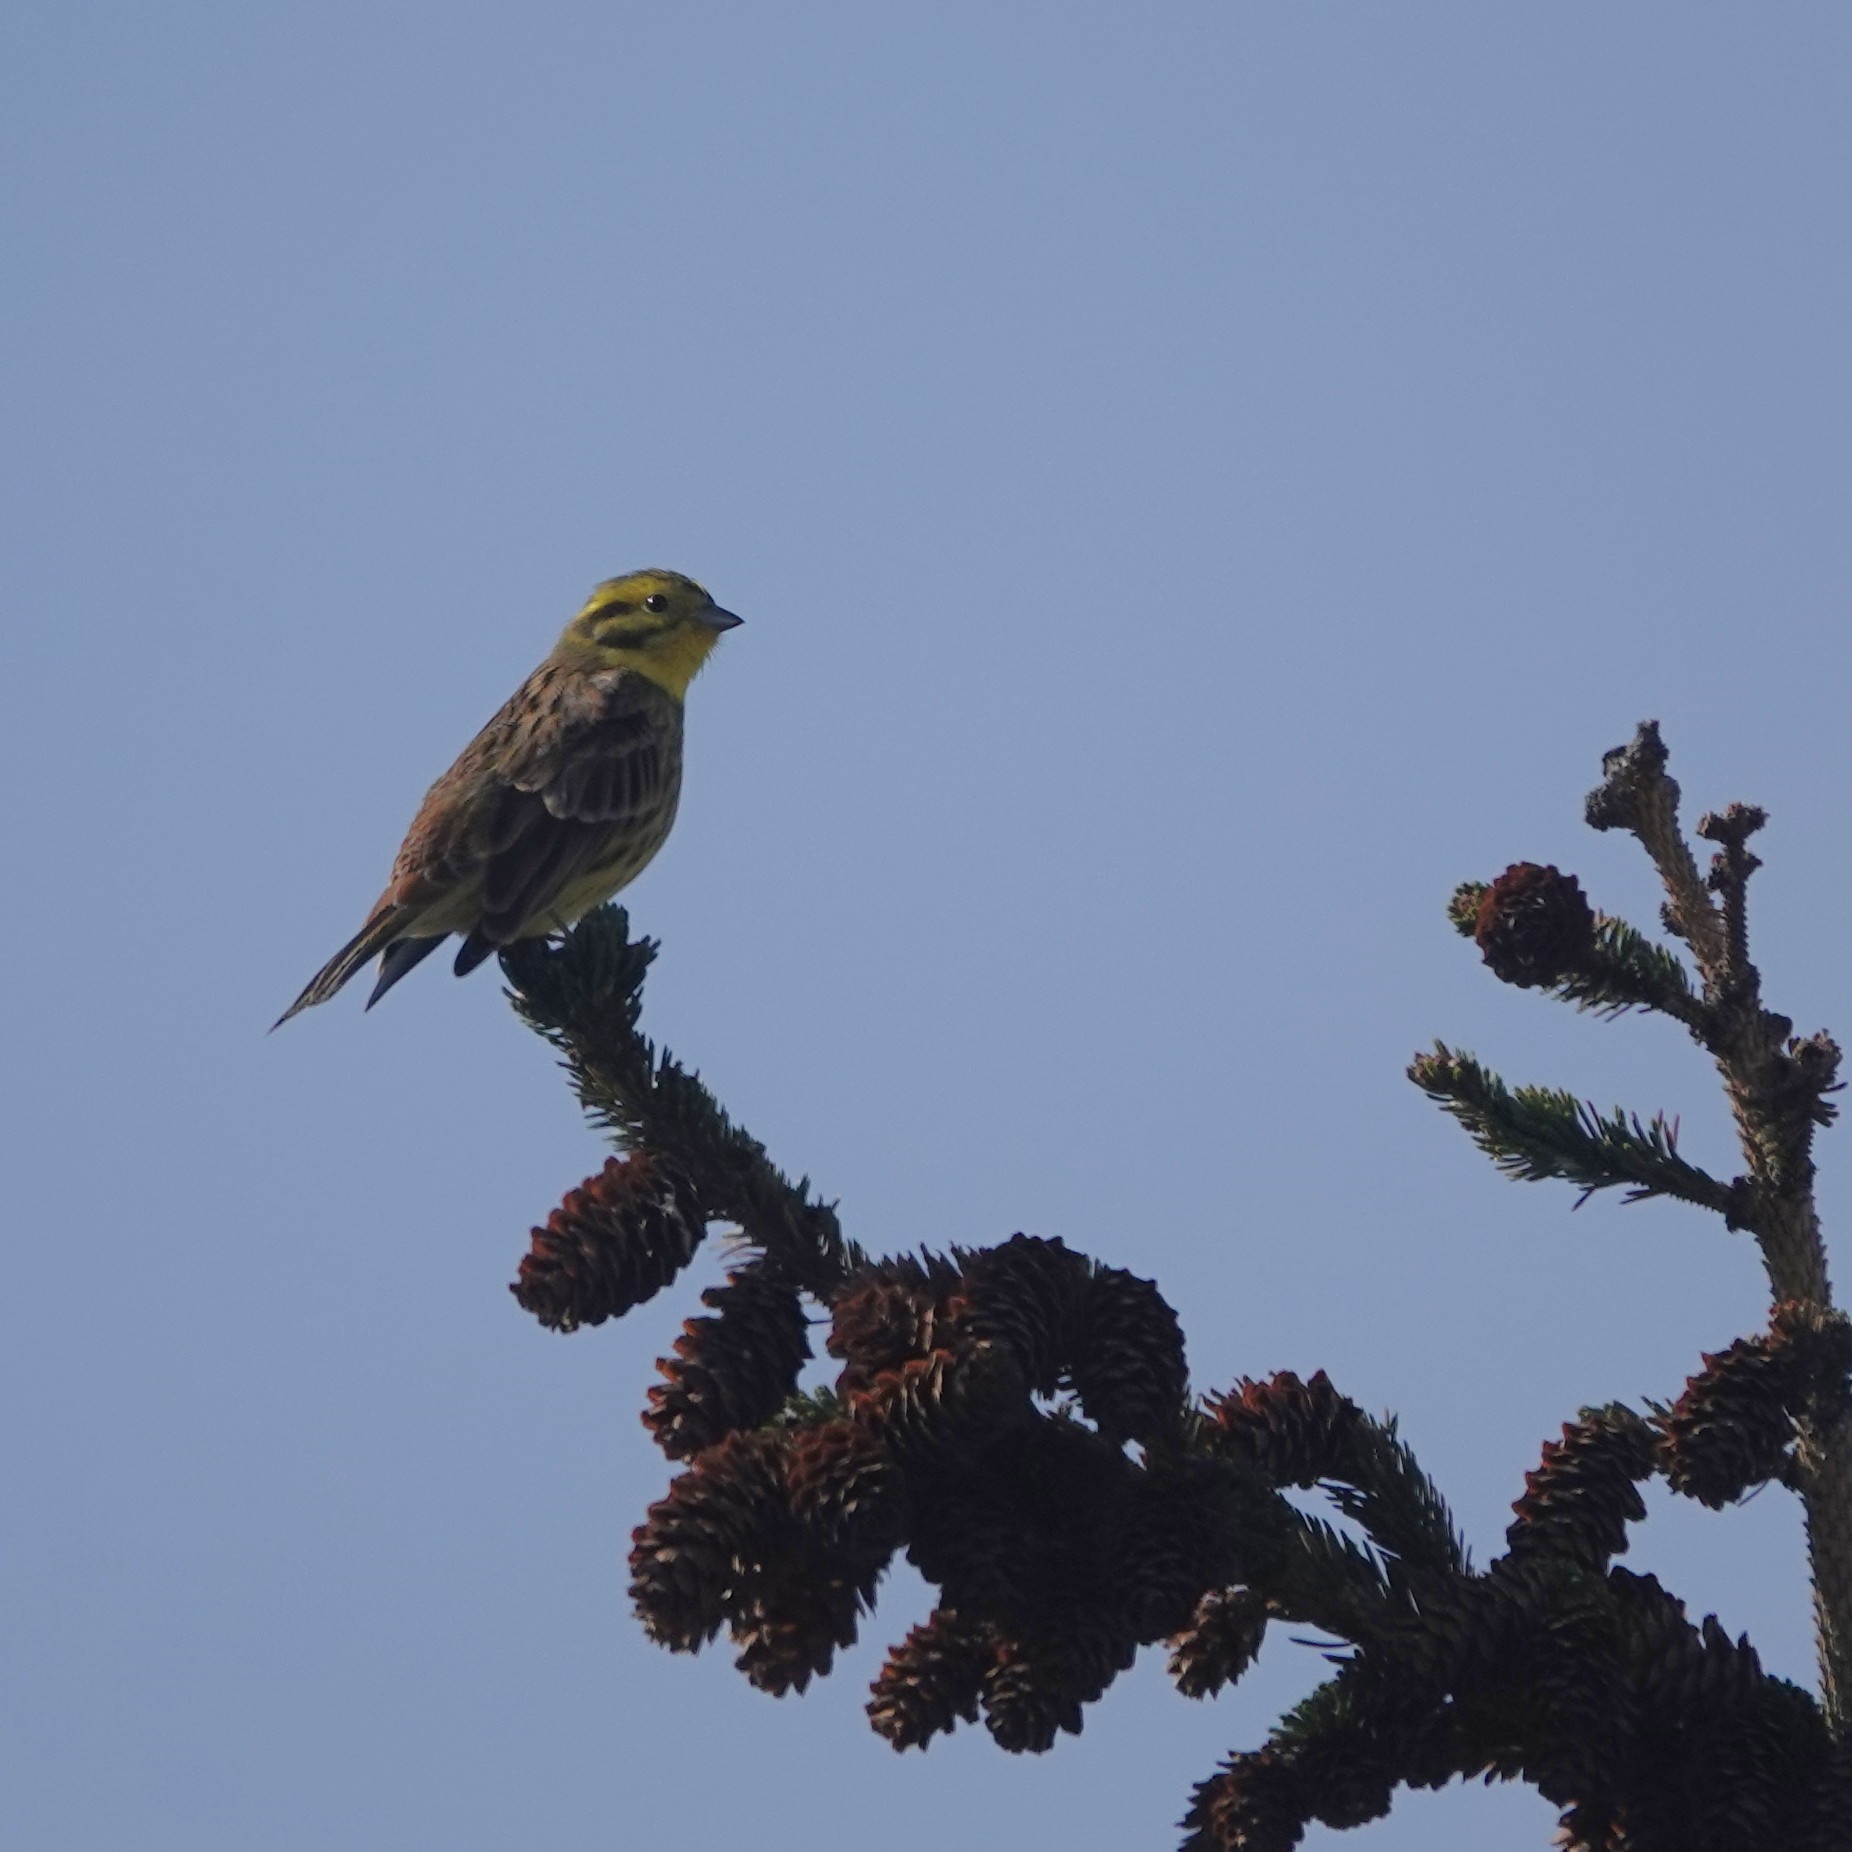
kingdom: Animalia
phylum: Chordata
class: Aves
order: Passeriformes
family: Emberizidae
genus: Emberiza
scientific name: Emberiza citrinella
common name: Yellowhammer
